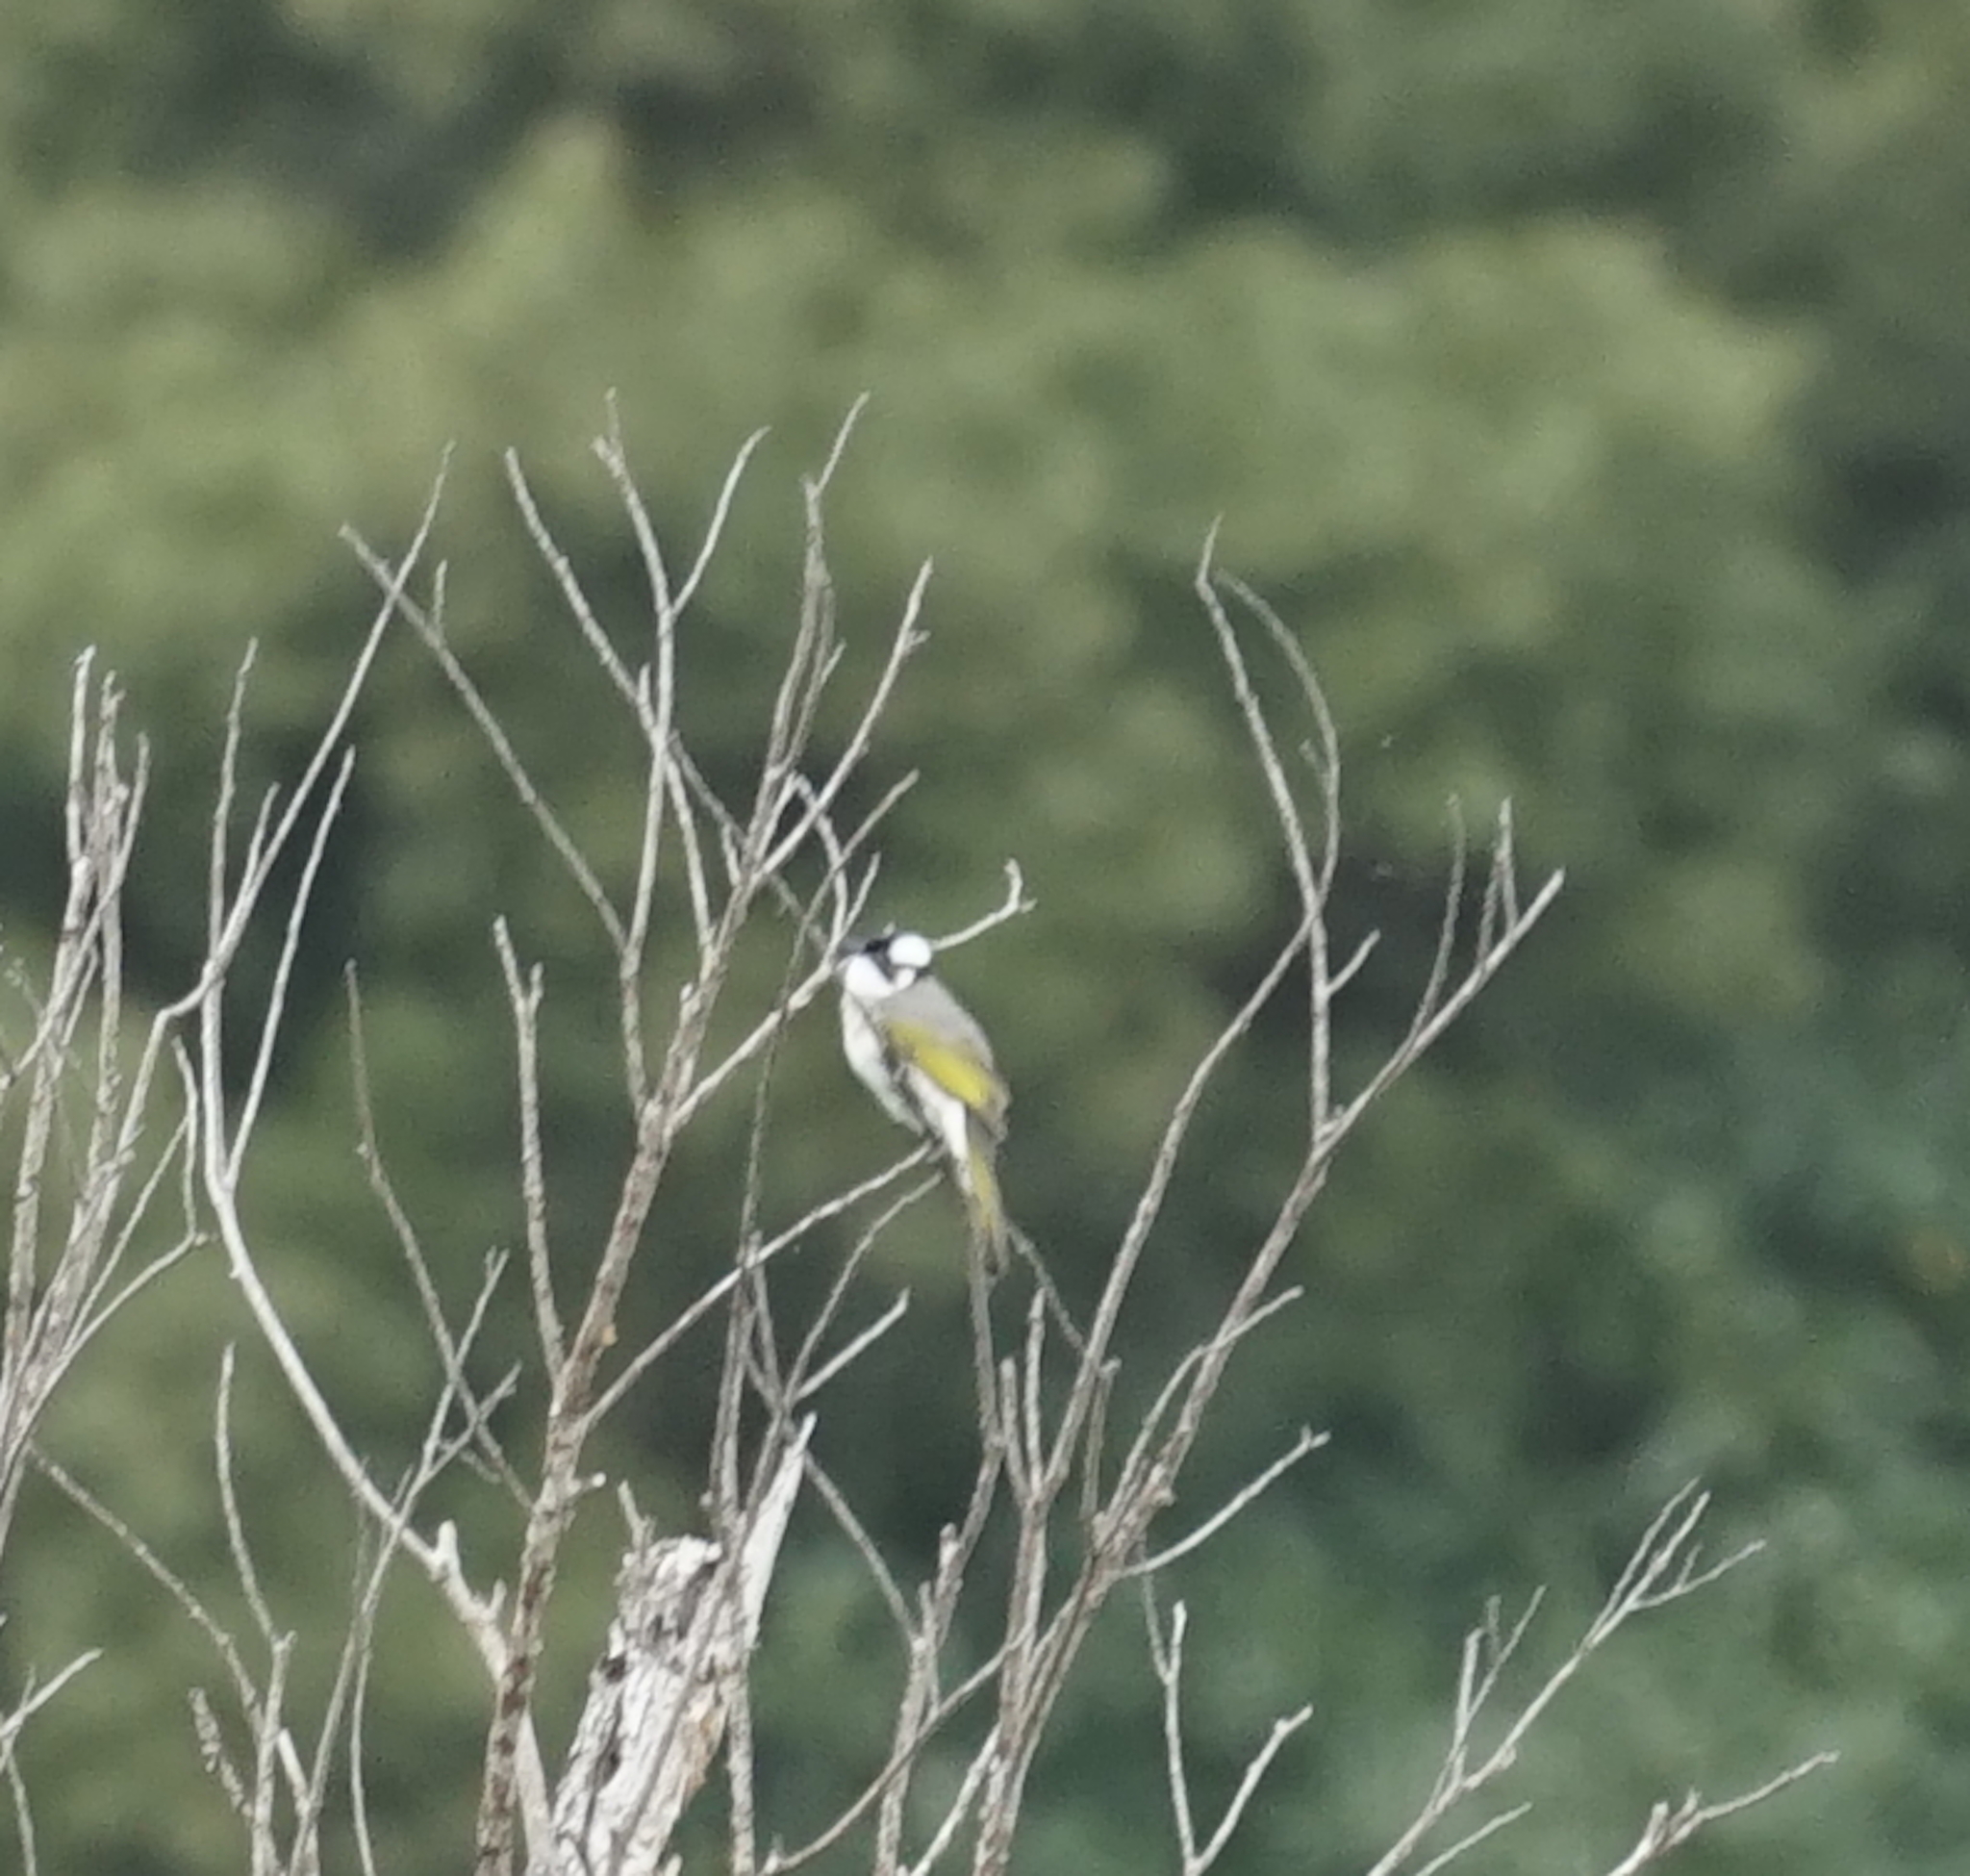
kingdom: Animalia
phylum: Chordata
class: Aves
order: Passeriformes
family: Pycnonotidae
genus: Pycnonotus
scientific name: Pycnonotus sinensis
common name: Light-vented bulbul
